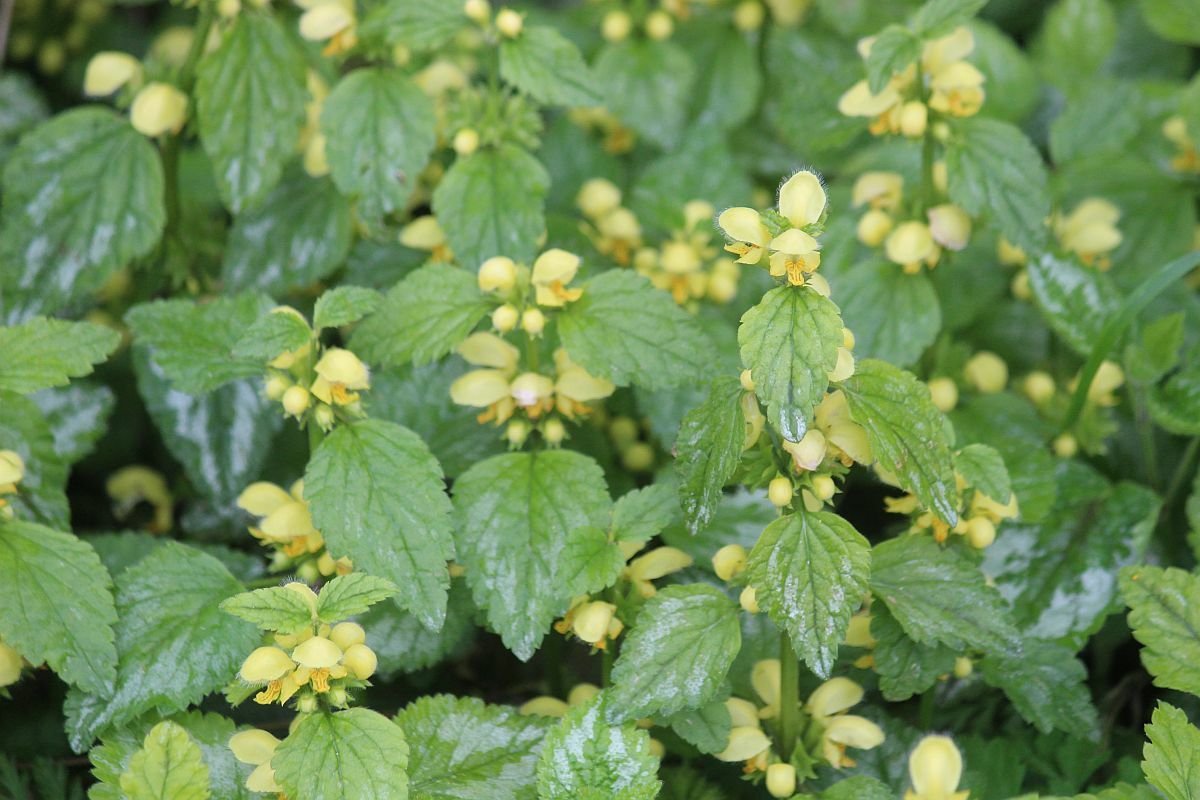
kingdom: Plantae
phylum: Tracheophyta
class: Magnoliopsida
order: Lamiales
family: Lamiaceae
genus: Lamium
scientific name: Lamium galeobdolon
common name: Yellow archangel
